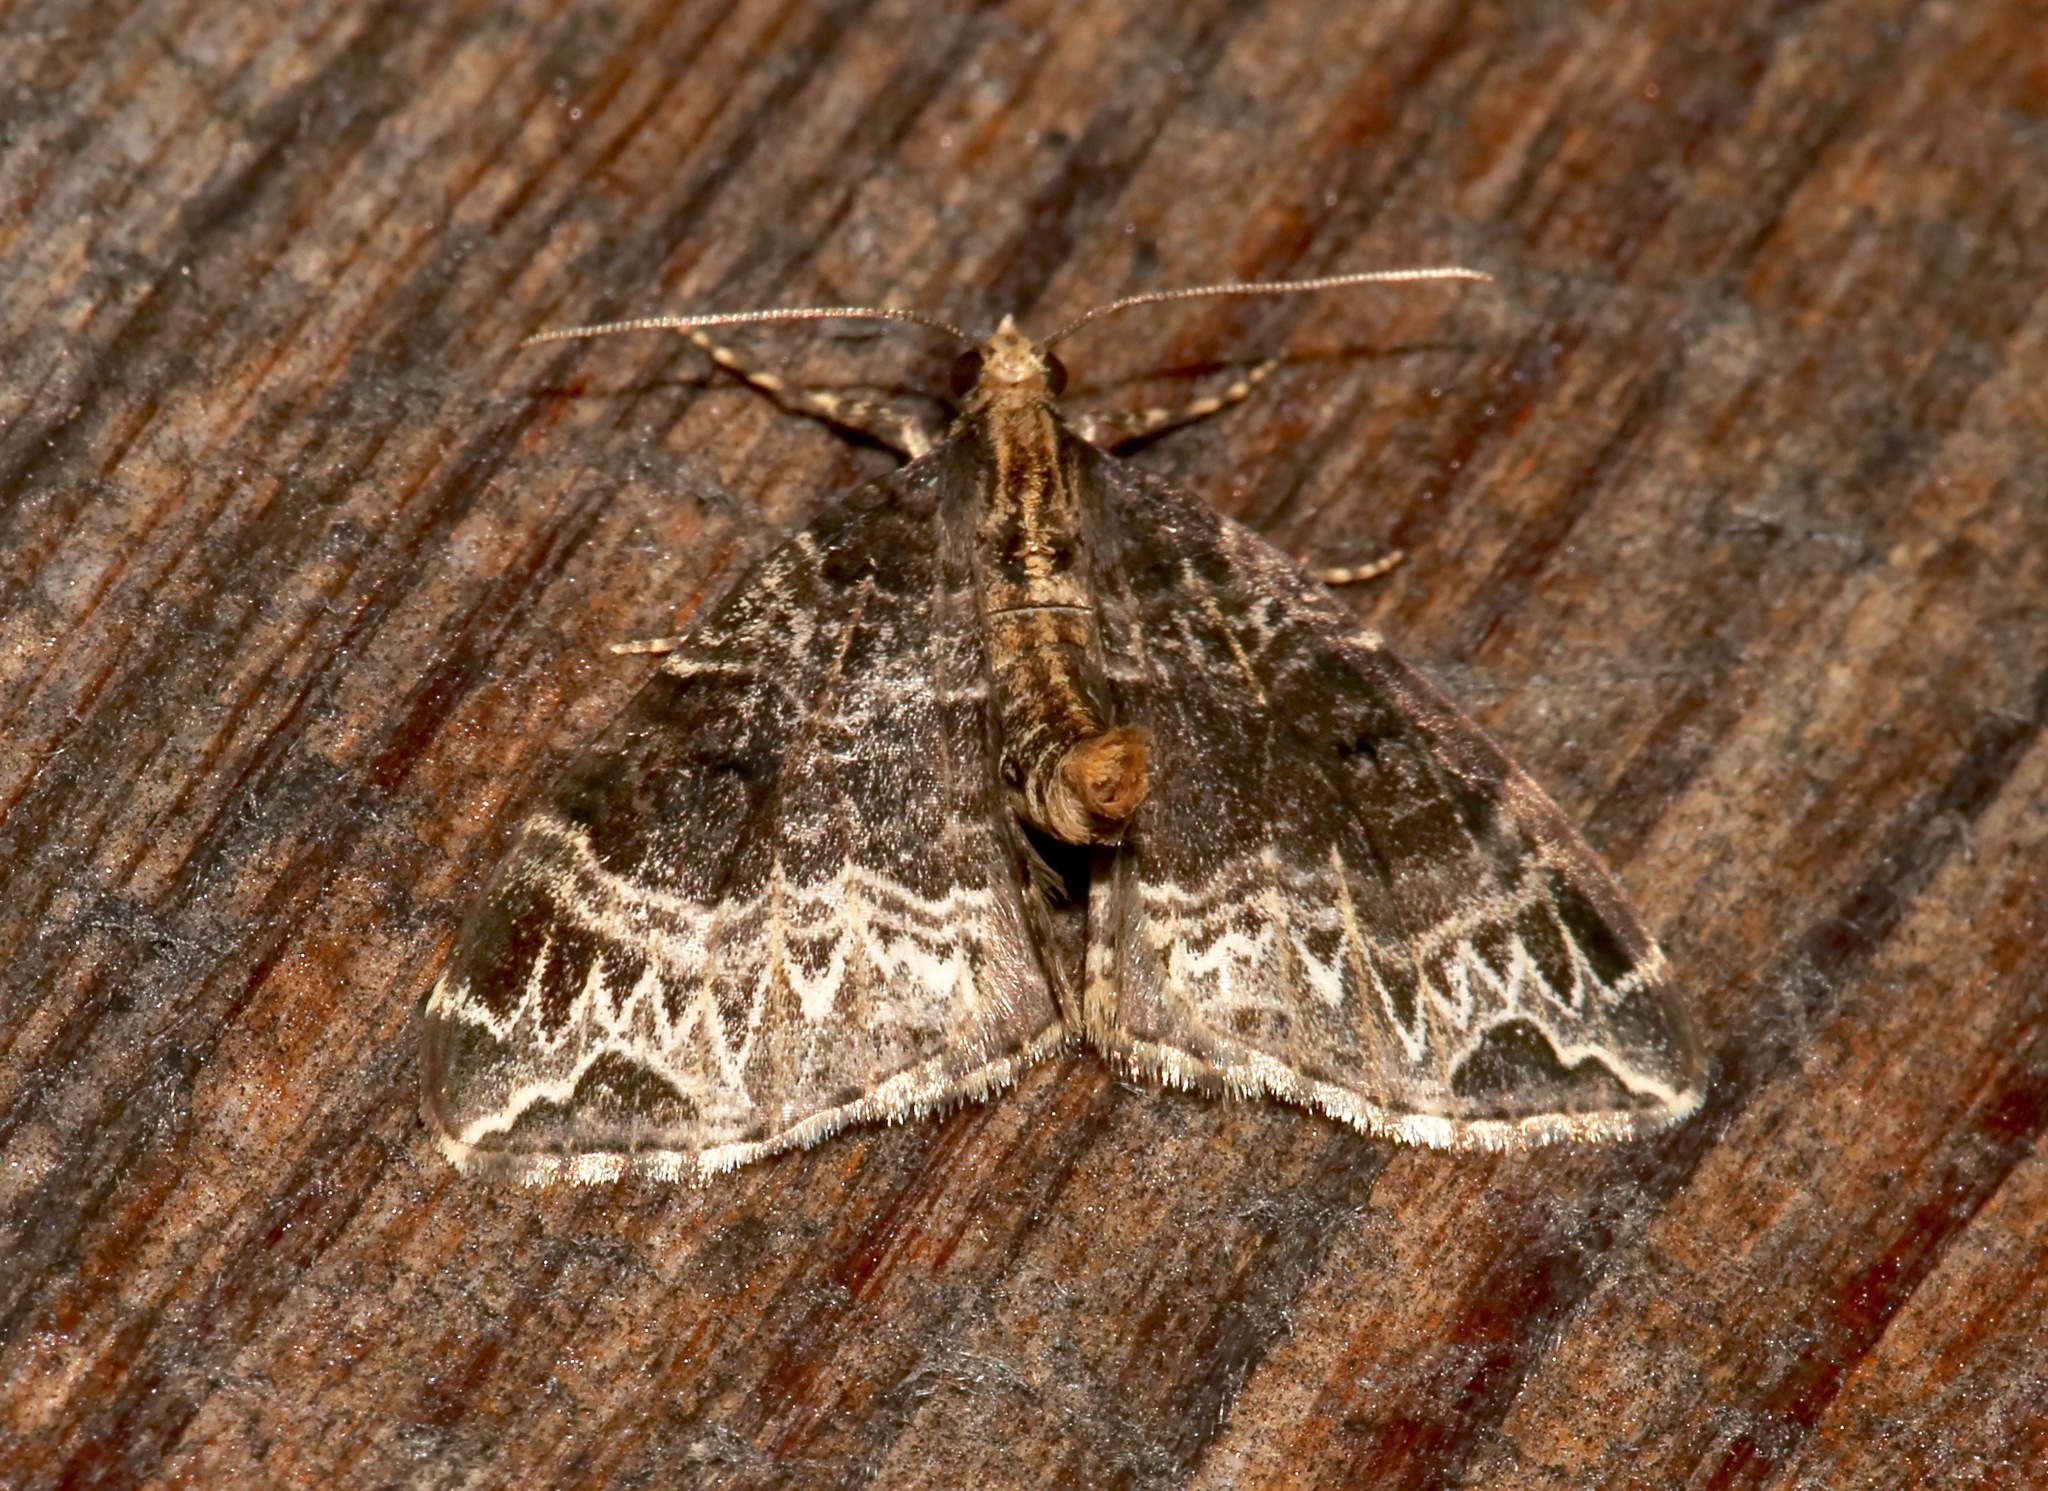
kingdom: Animalia
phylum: Arthropoda
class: Insecta
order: Lepidoptera
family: Geometridae
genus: Ecliptopera
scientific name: Ecliptopera silaceata
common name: Small phoenix
